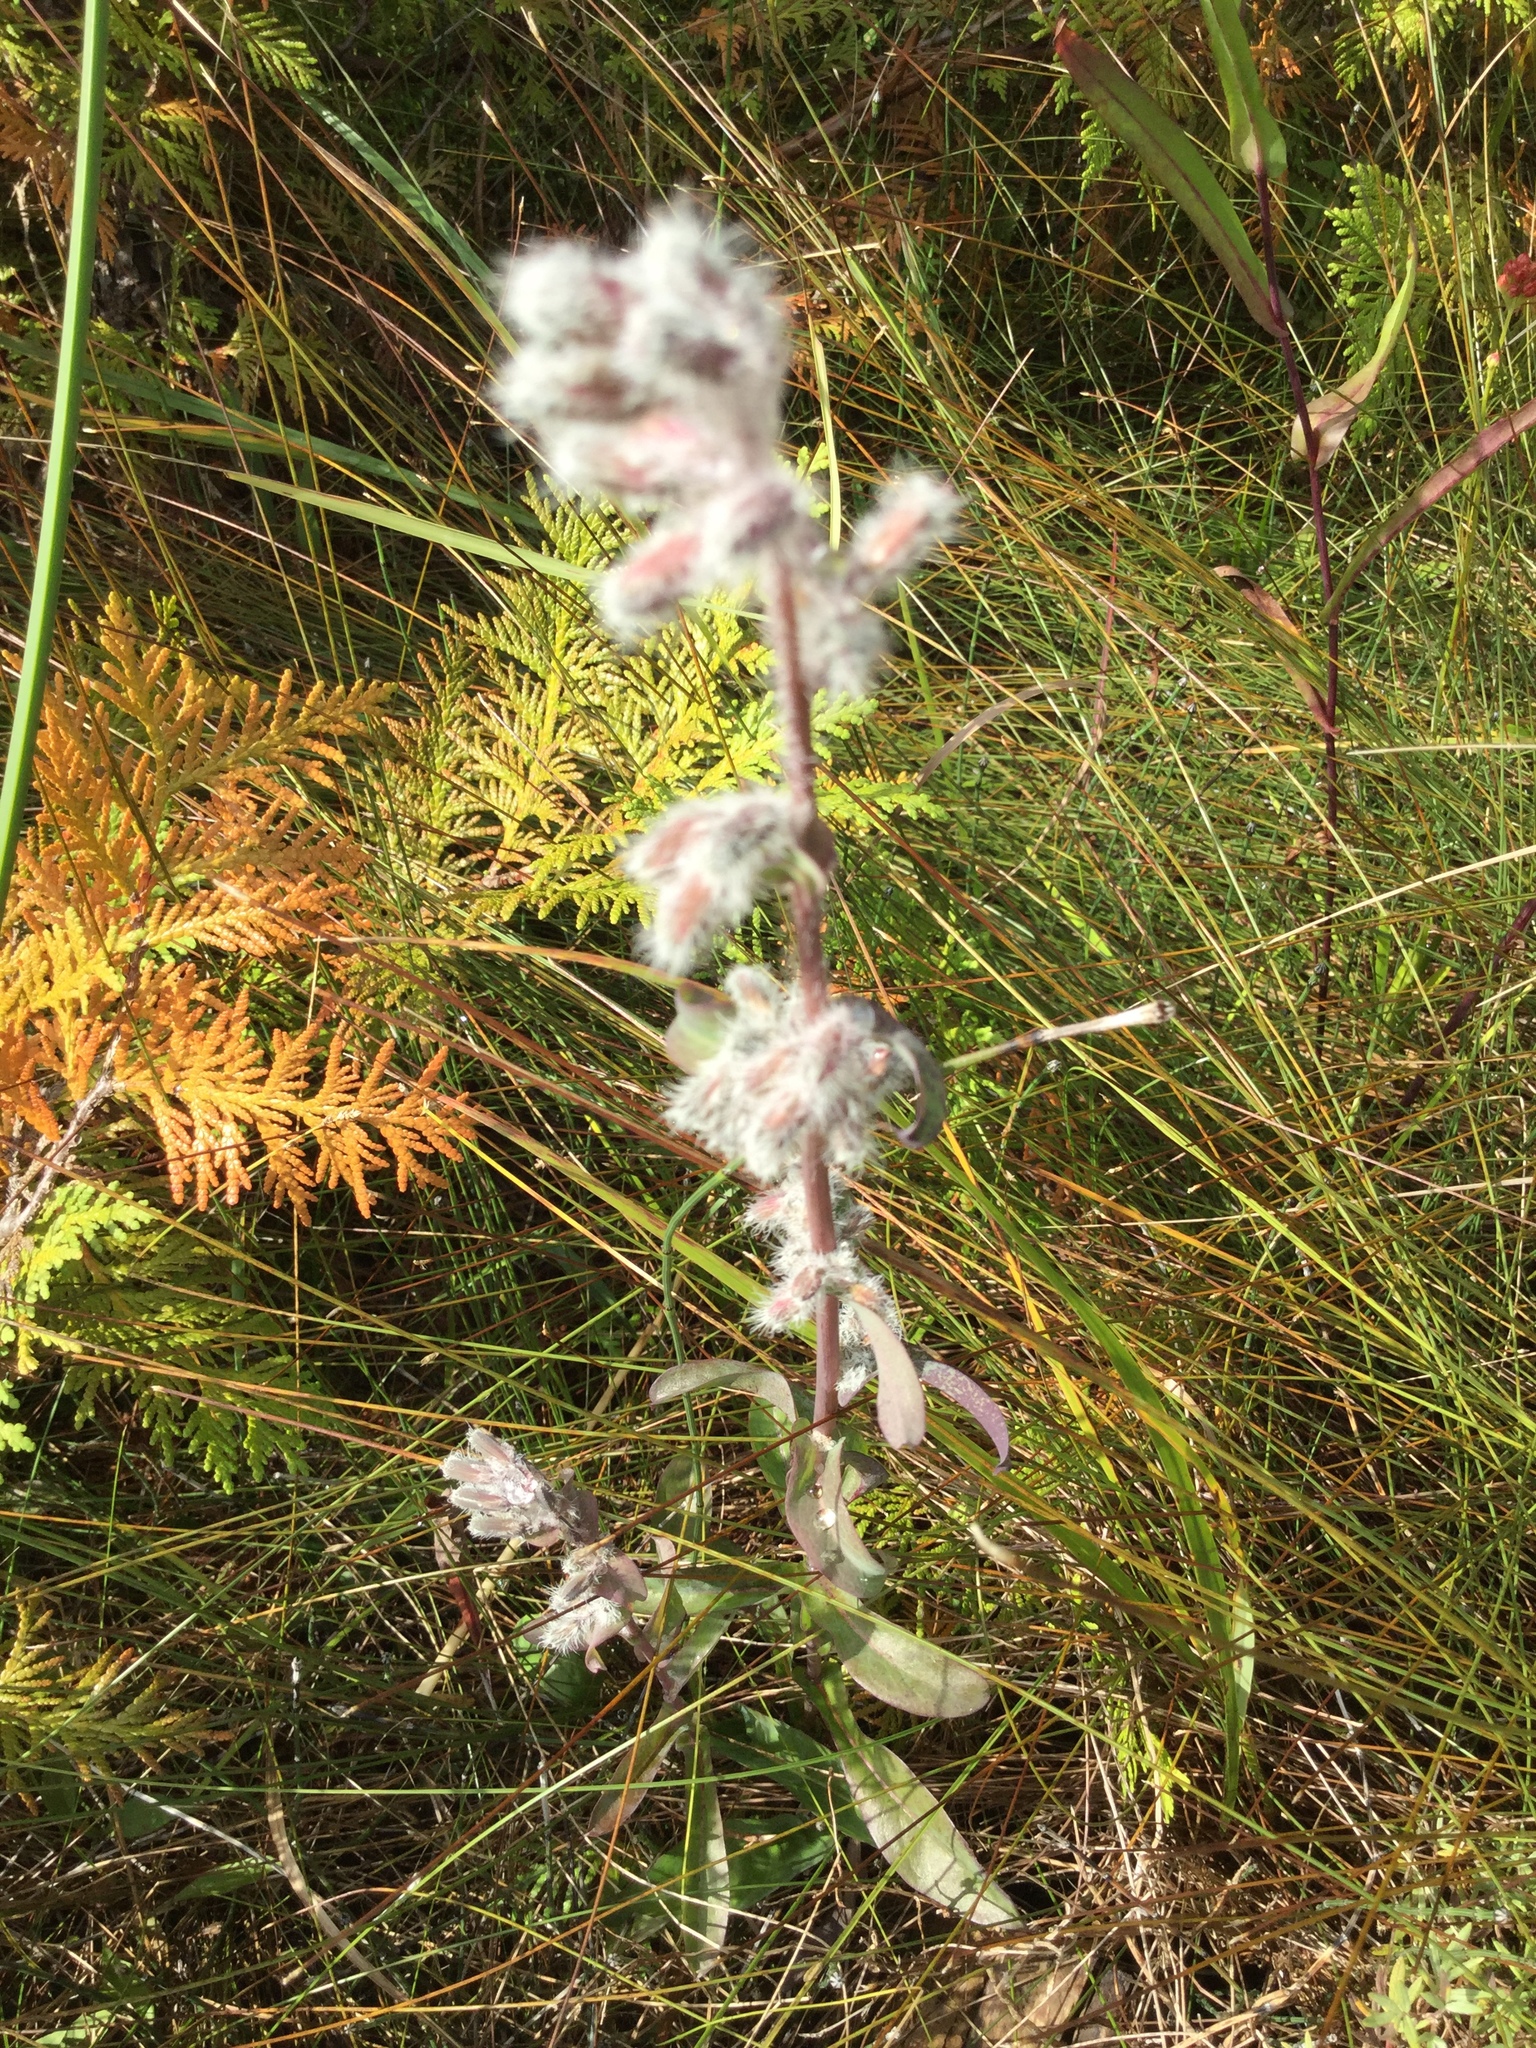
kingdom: Plantae
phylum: Tracheophyta
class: Magnoliopsida
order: Asterales
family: Asteraceae
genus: Nabalus
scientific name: Nabalus racemosus
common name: Glaucous white lettuce
